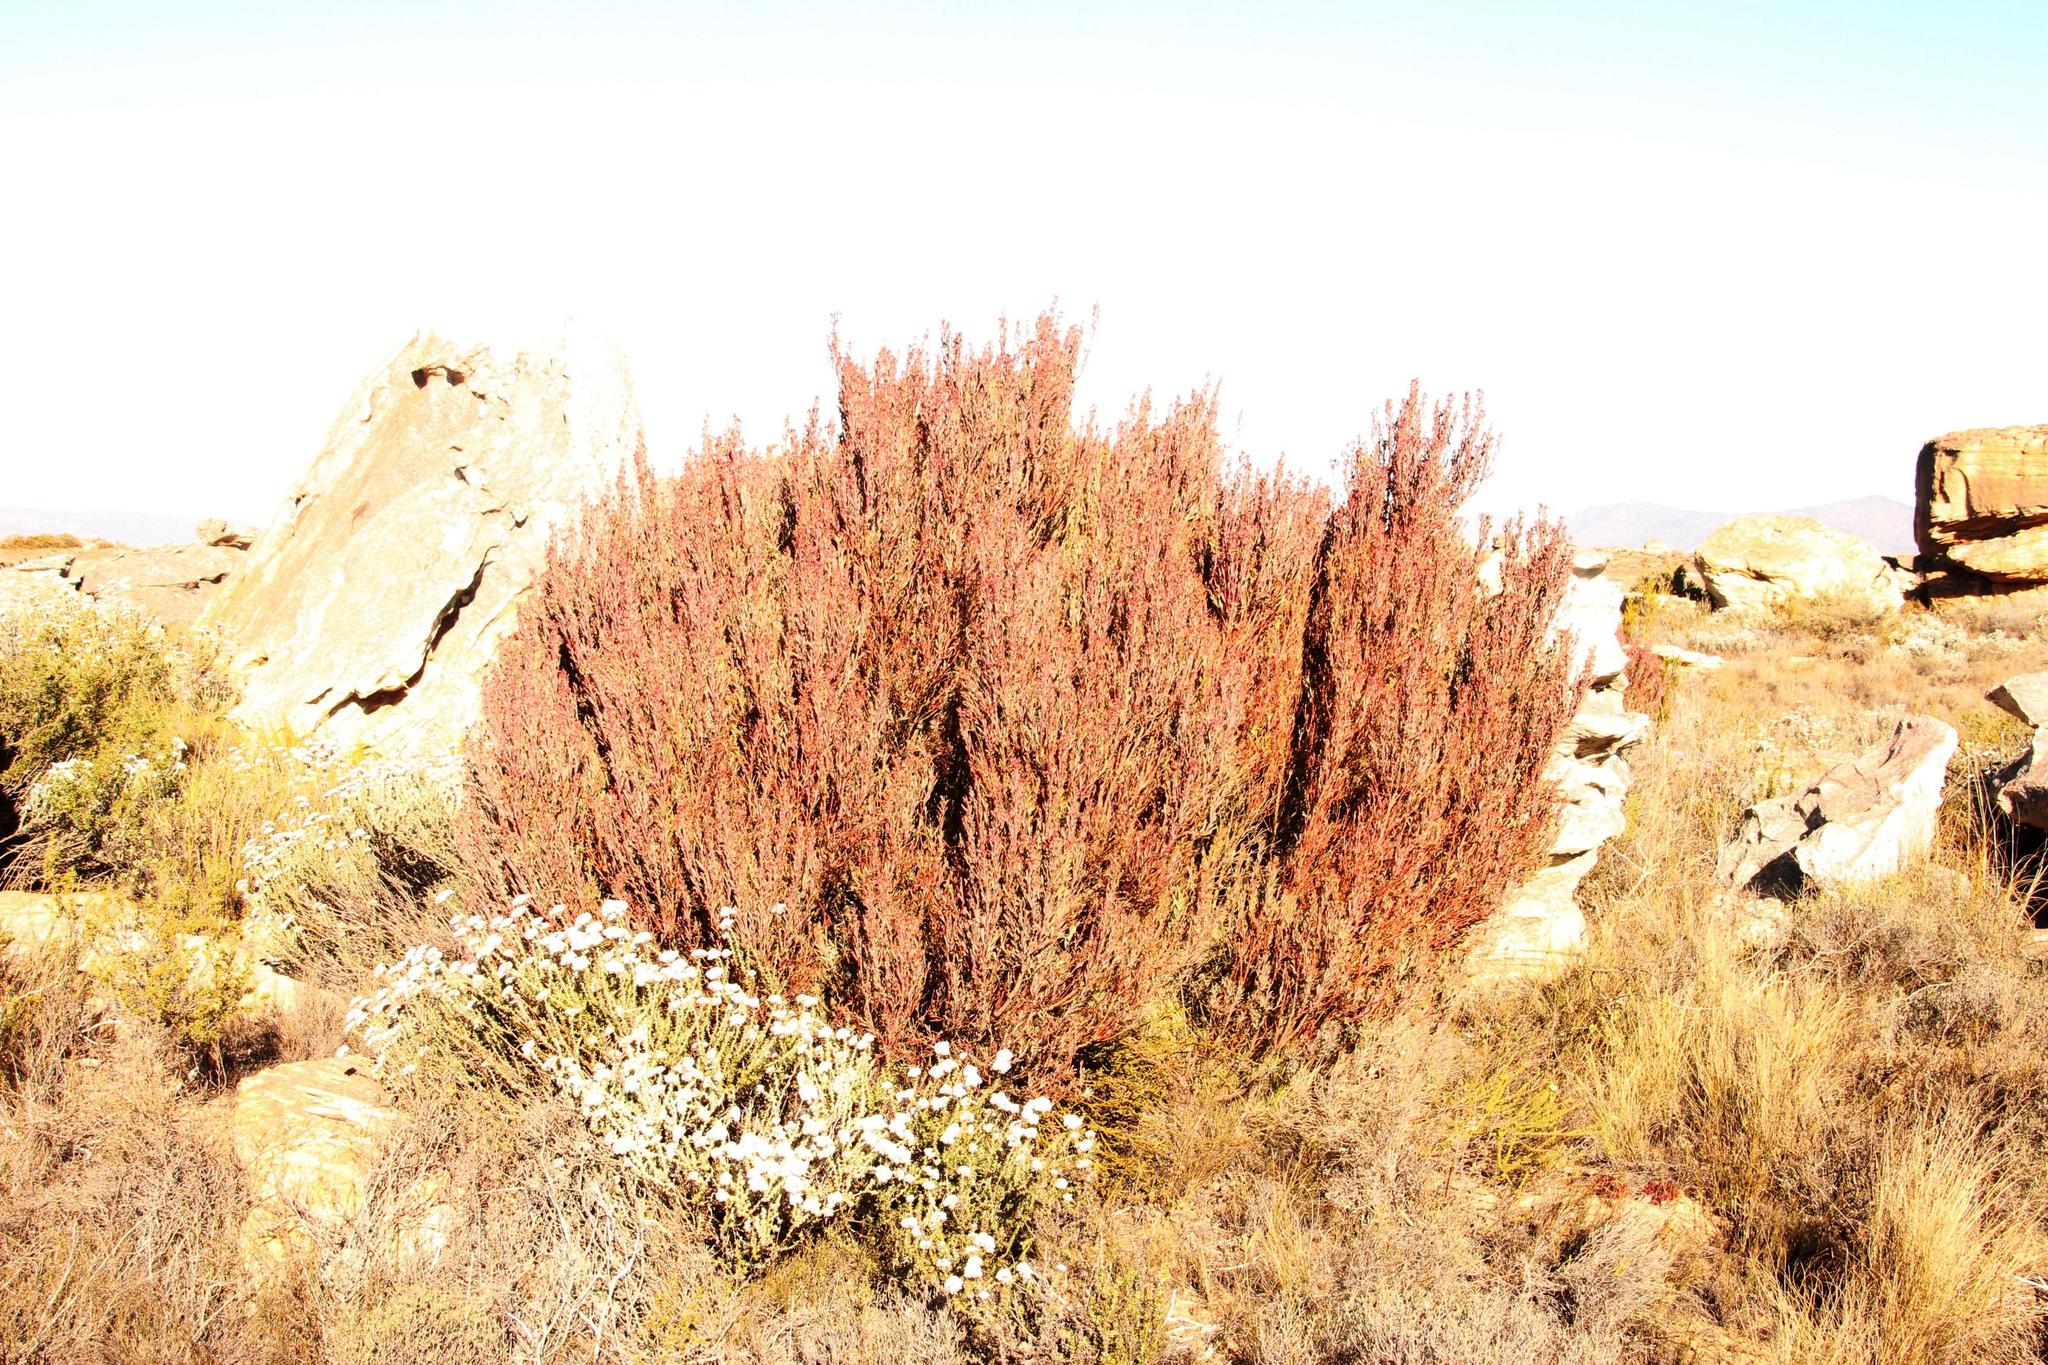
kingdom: Plantae
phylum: Tracheophyta
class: Magnoliopsida
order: Proteales
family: Proteaceae
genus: Leucadendron
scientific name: Leucadendron rubrum
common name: Spinning top
